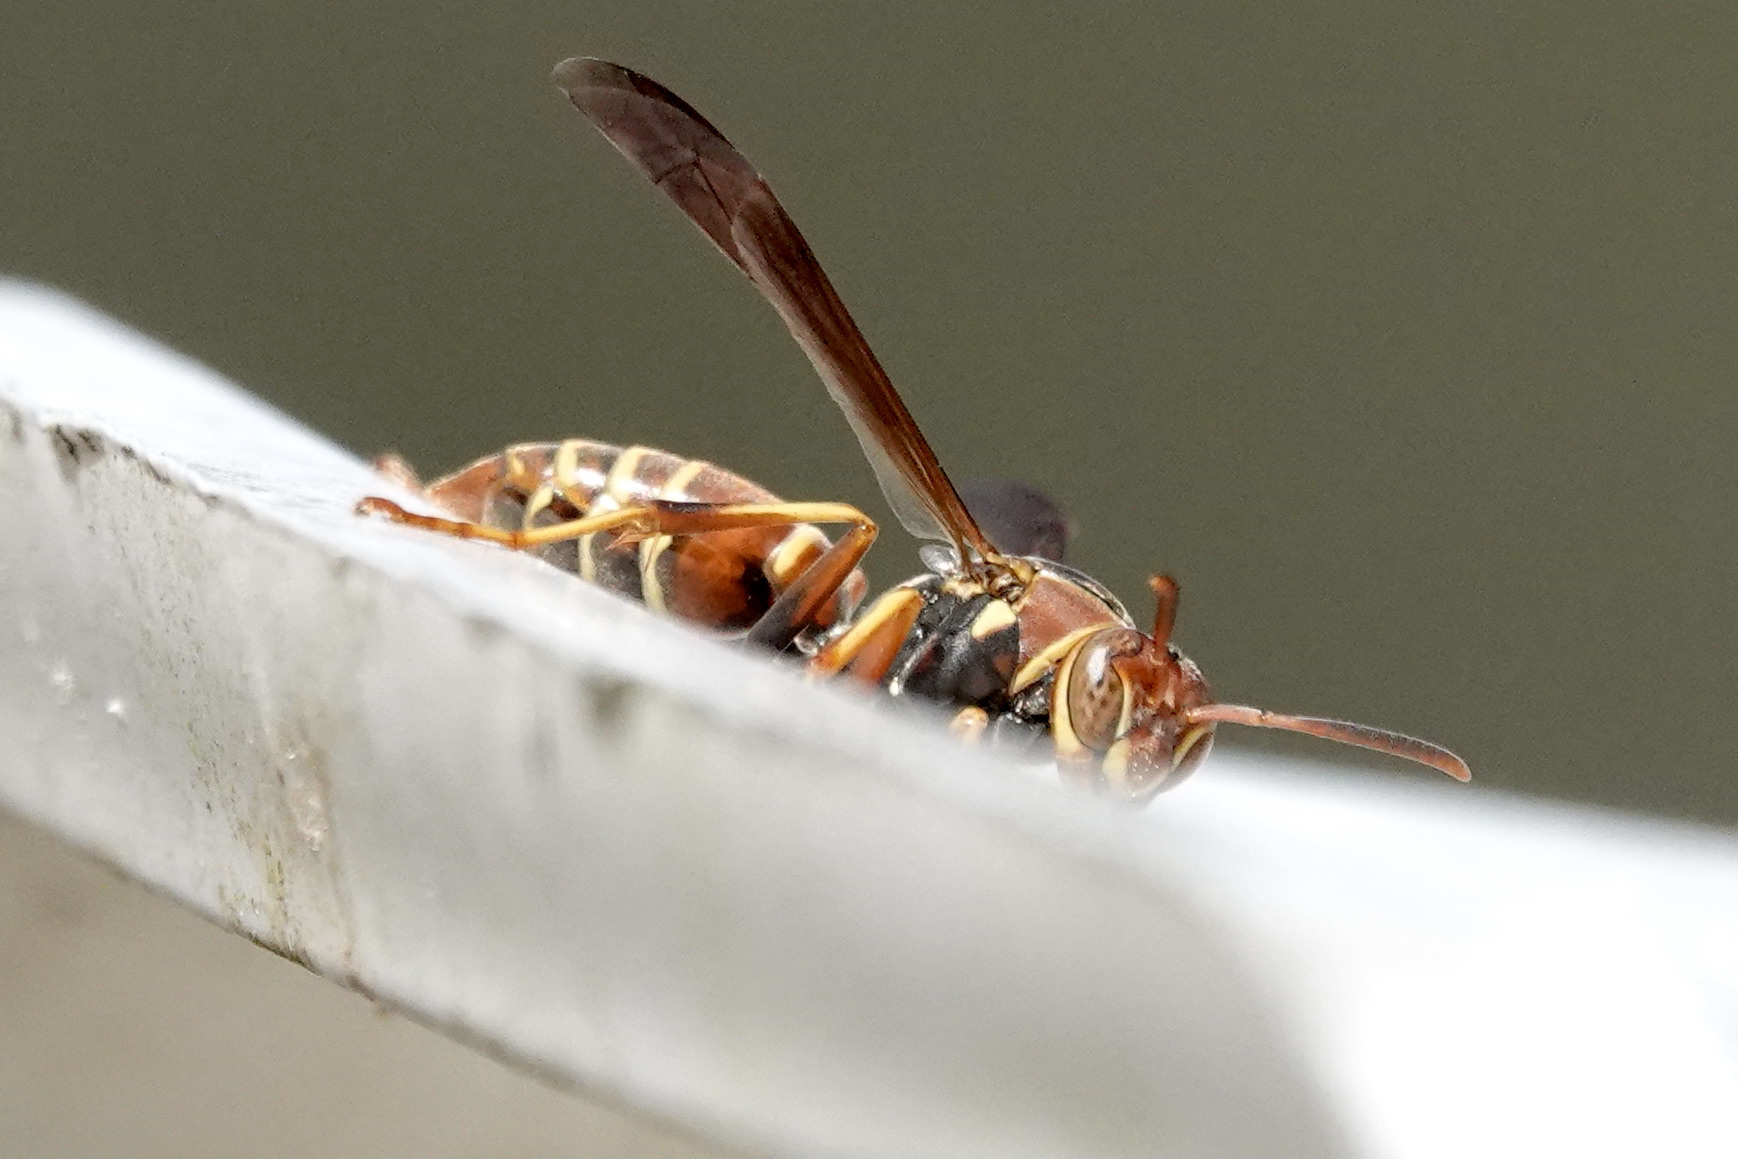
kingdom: Animalia
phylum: Arthropoda
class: Insecta
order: Hymenoptera
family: Eumenidae
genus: Polistes
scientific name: Polistes dorsalis
